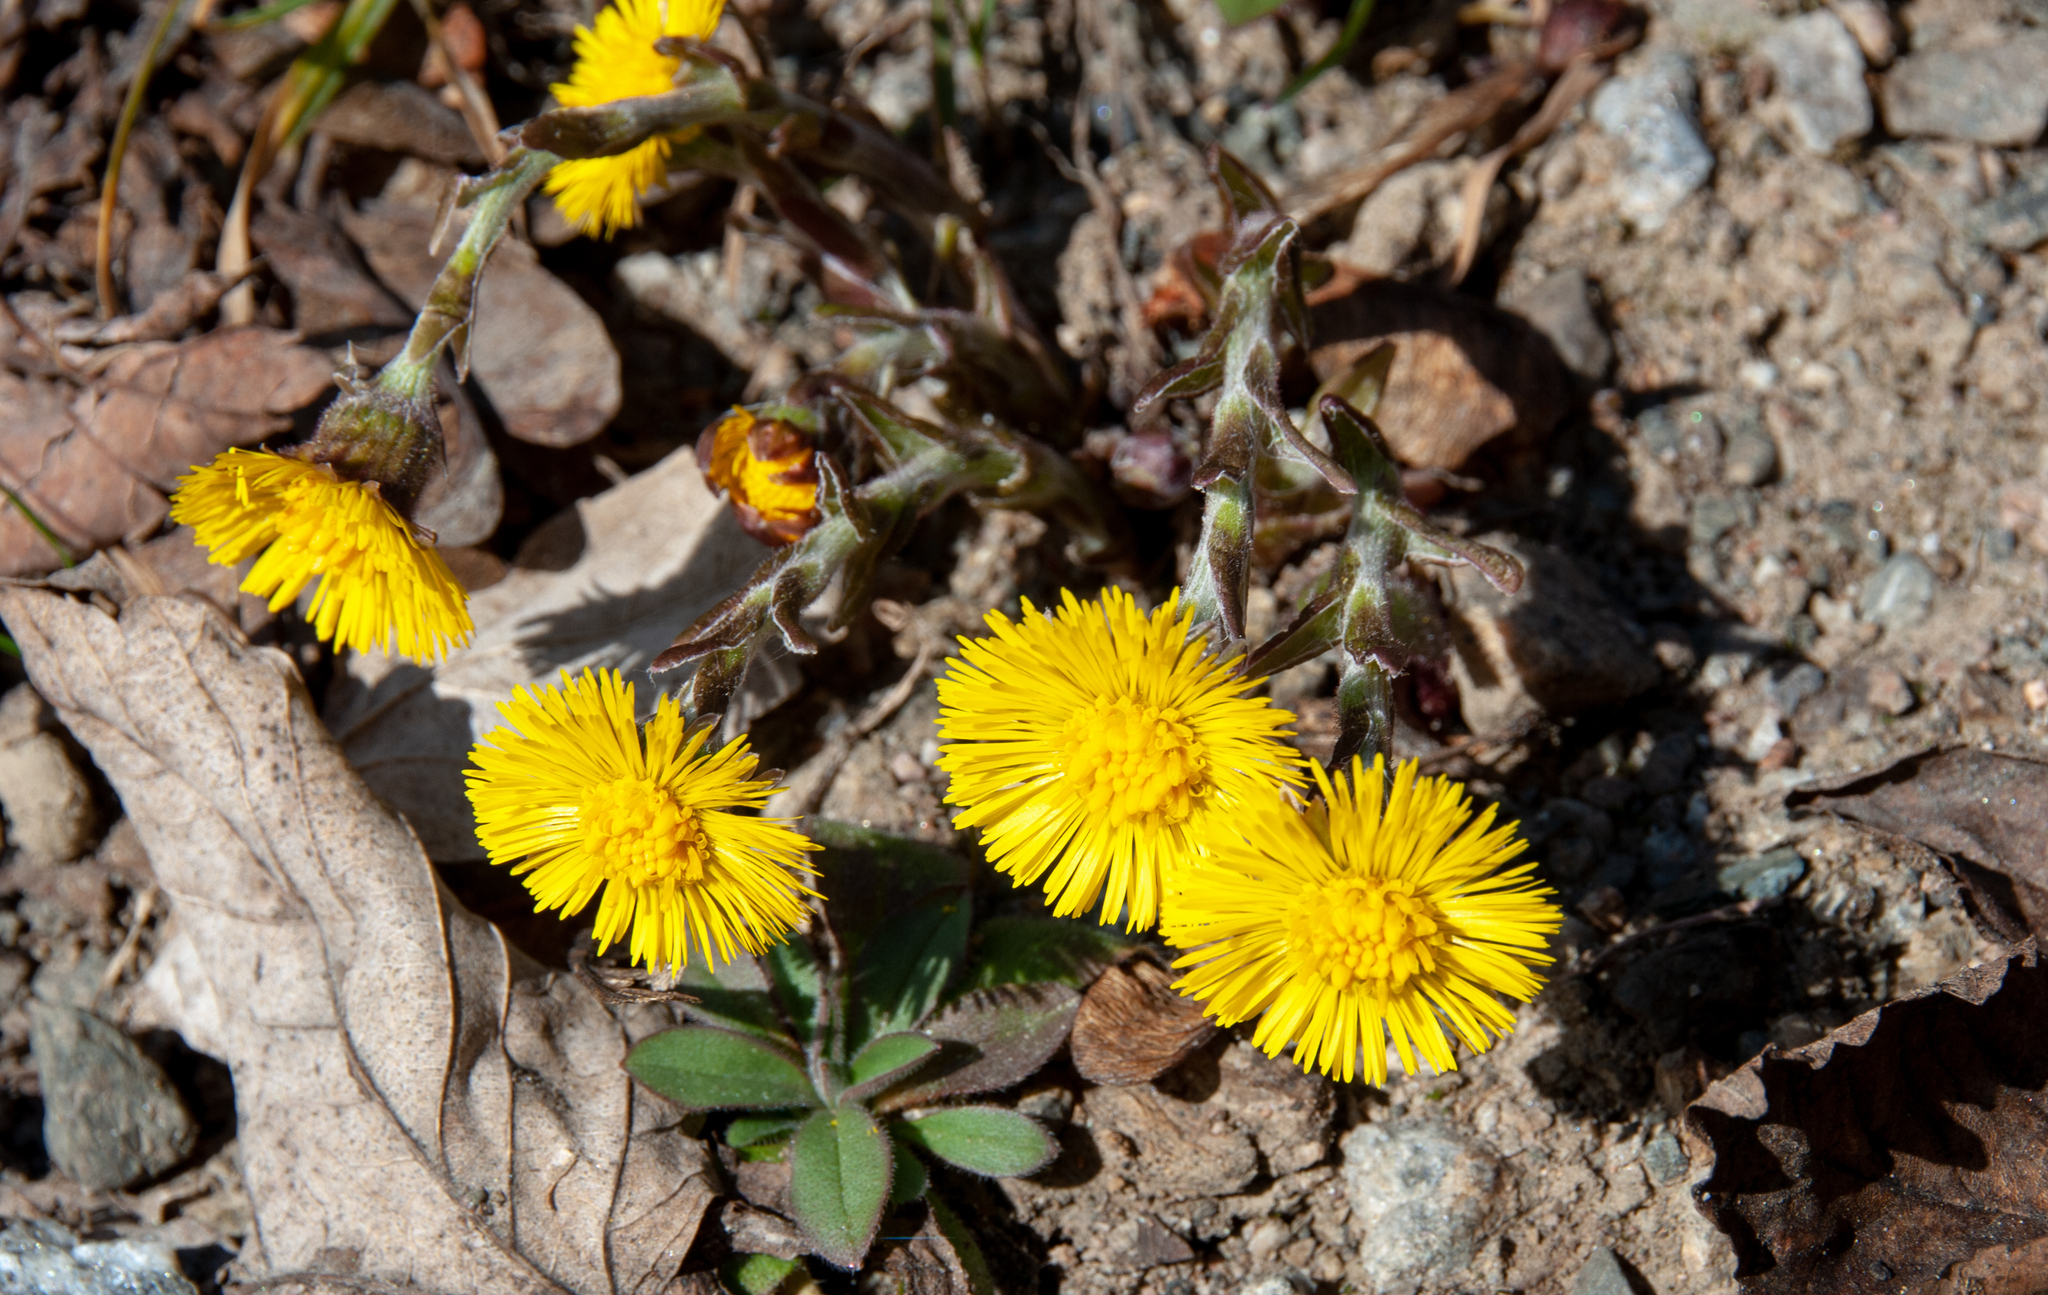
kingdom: Plantae
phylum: Tracheophyta
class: Magnoliopsida
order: Asterales
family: Asteraceae
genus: Tussilago
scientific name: Tussilago farfara
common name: Coltsfoot
